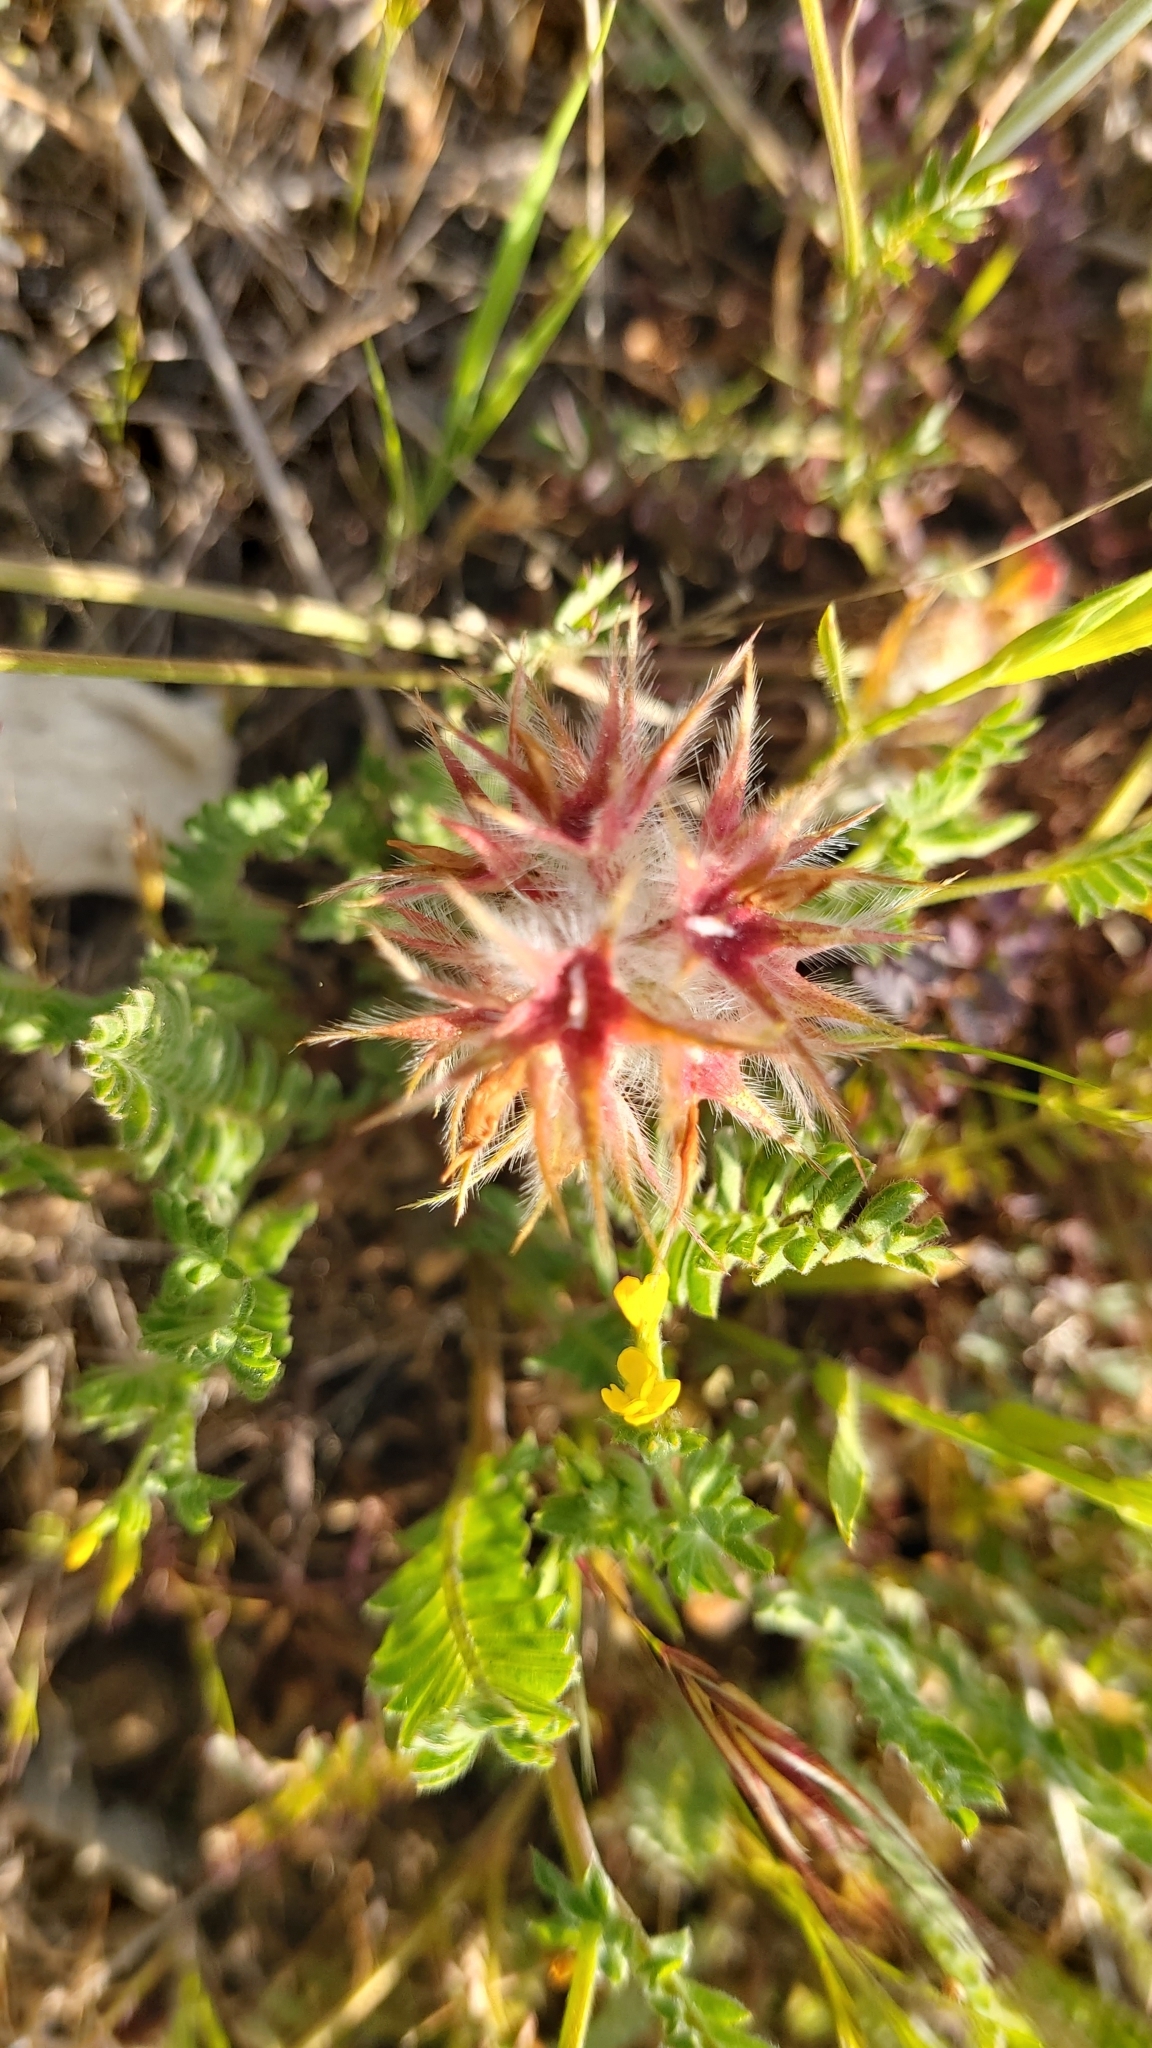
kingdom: Plantae
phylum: Tracheophyta
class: Magnoliopsida
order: Fabales
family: Fabaceae
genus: Trifolium
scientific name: Trifolium stellatum
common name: Starry clover
